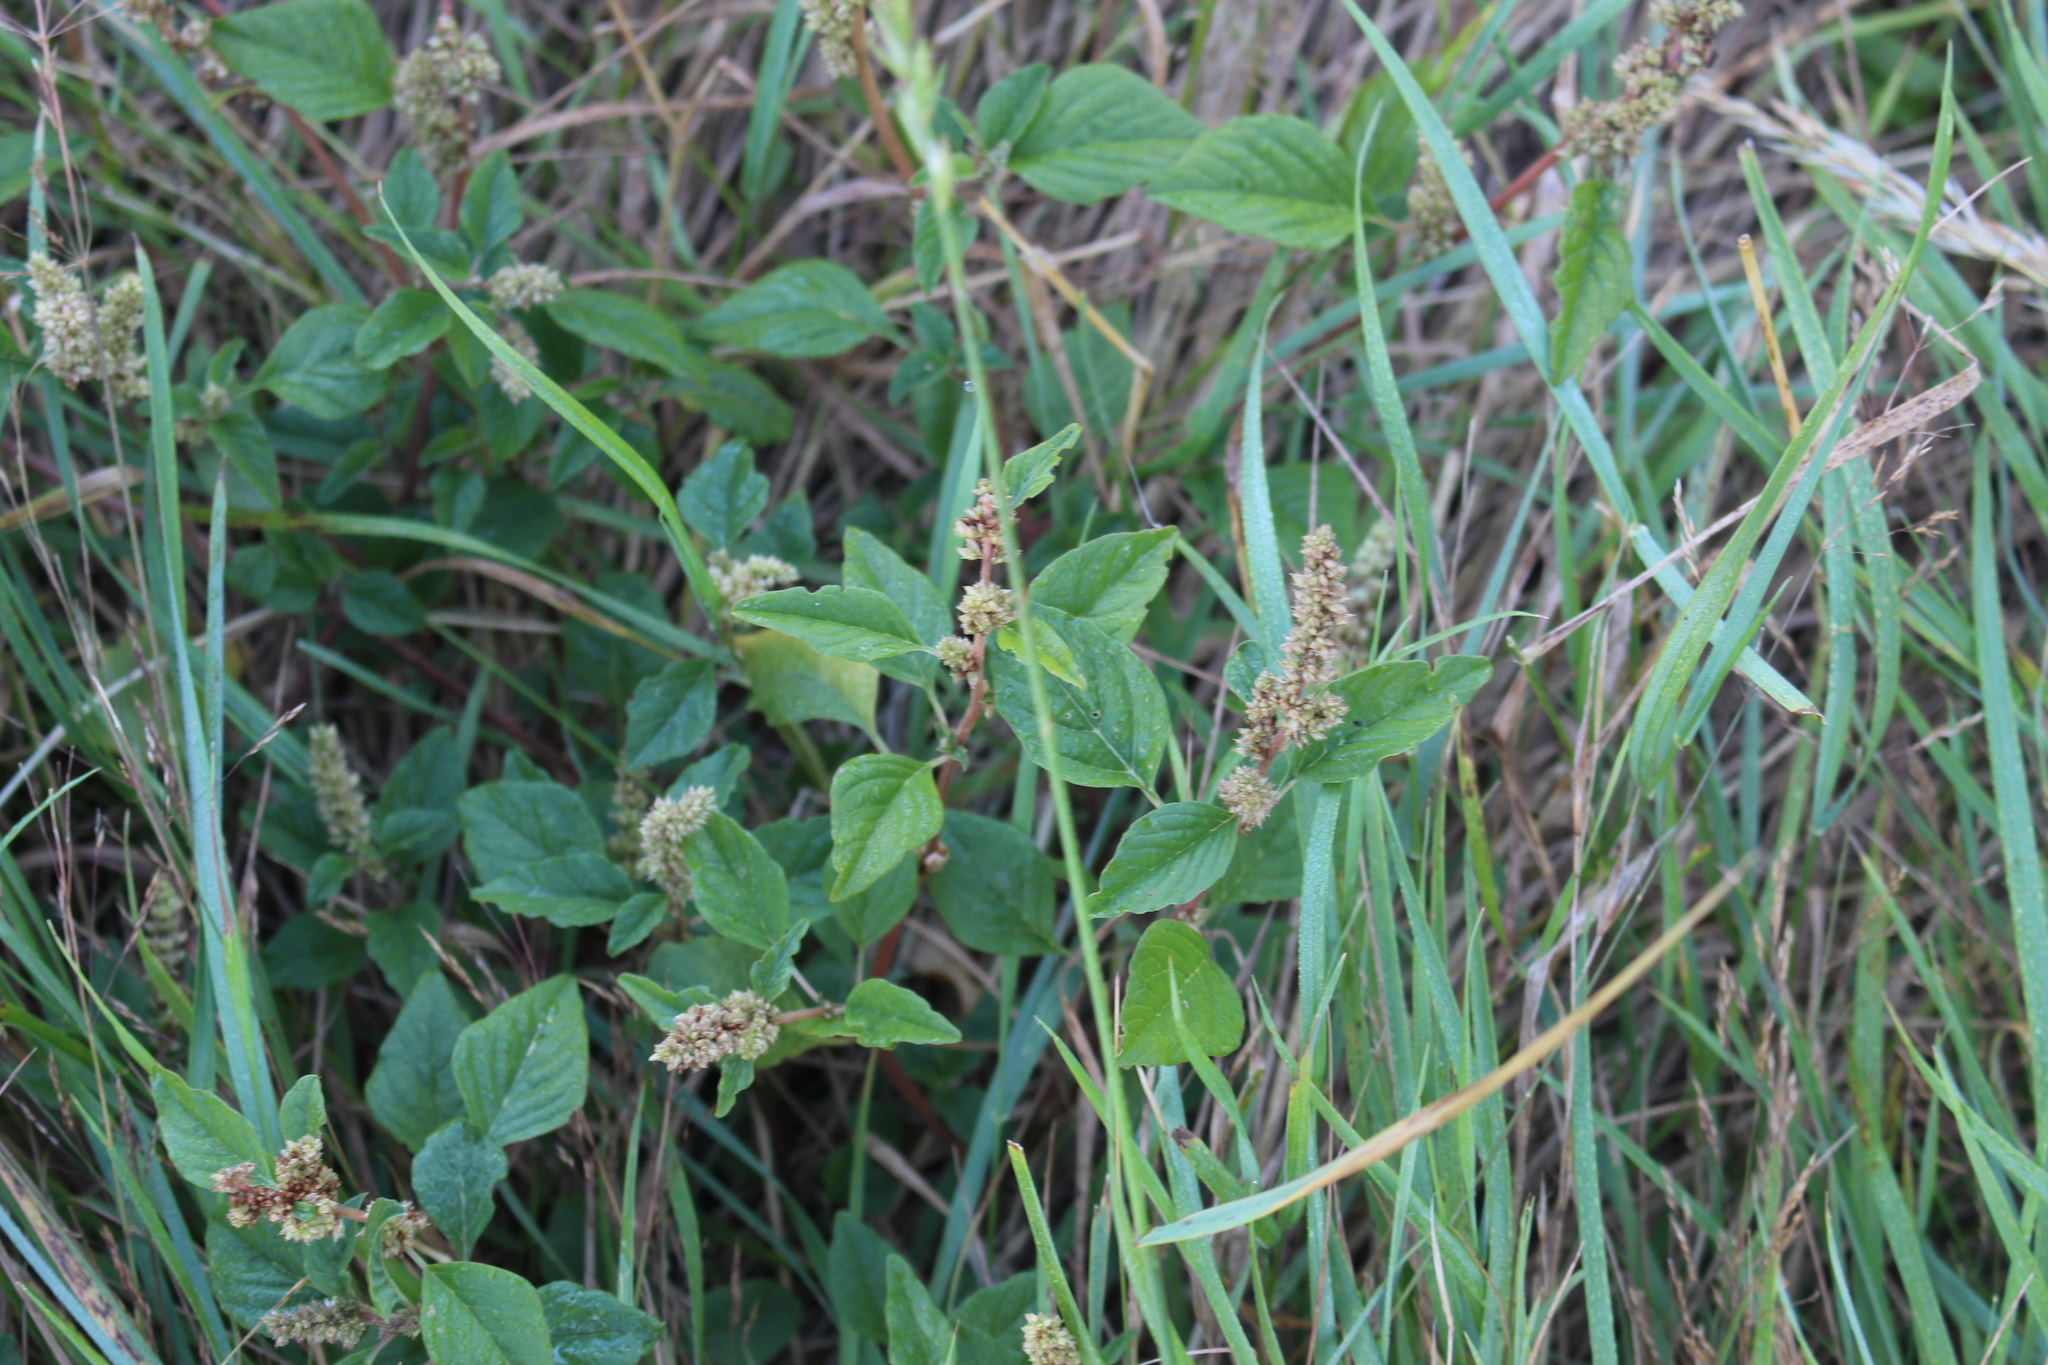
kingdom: Plantae
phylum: Tracheophyta
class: Magnoliopsida
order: Caryophyllales
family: Amaranthaceae
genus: Amaranthus
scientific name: Amaranthus deflexus
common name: Perennial pigweed
